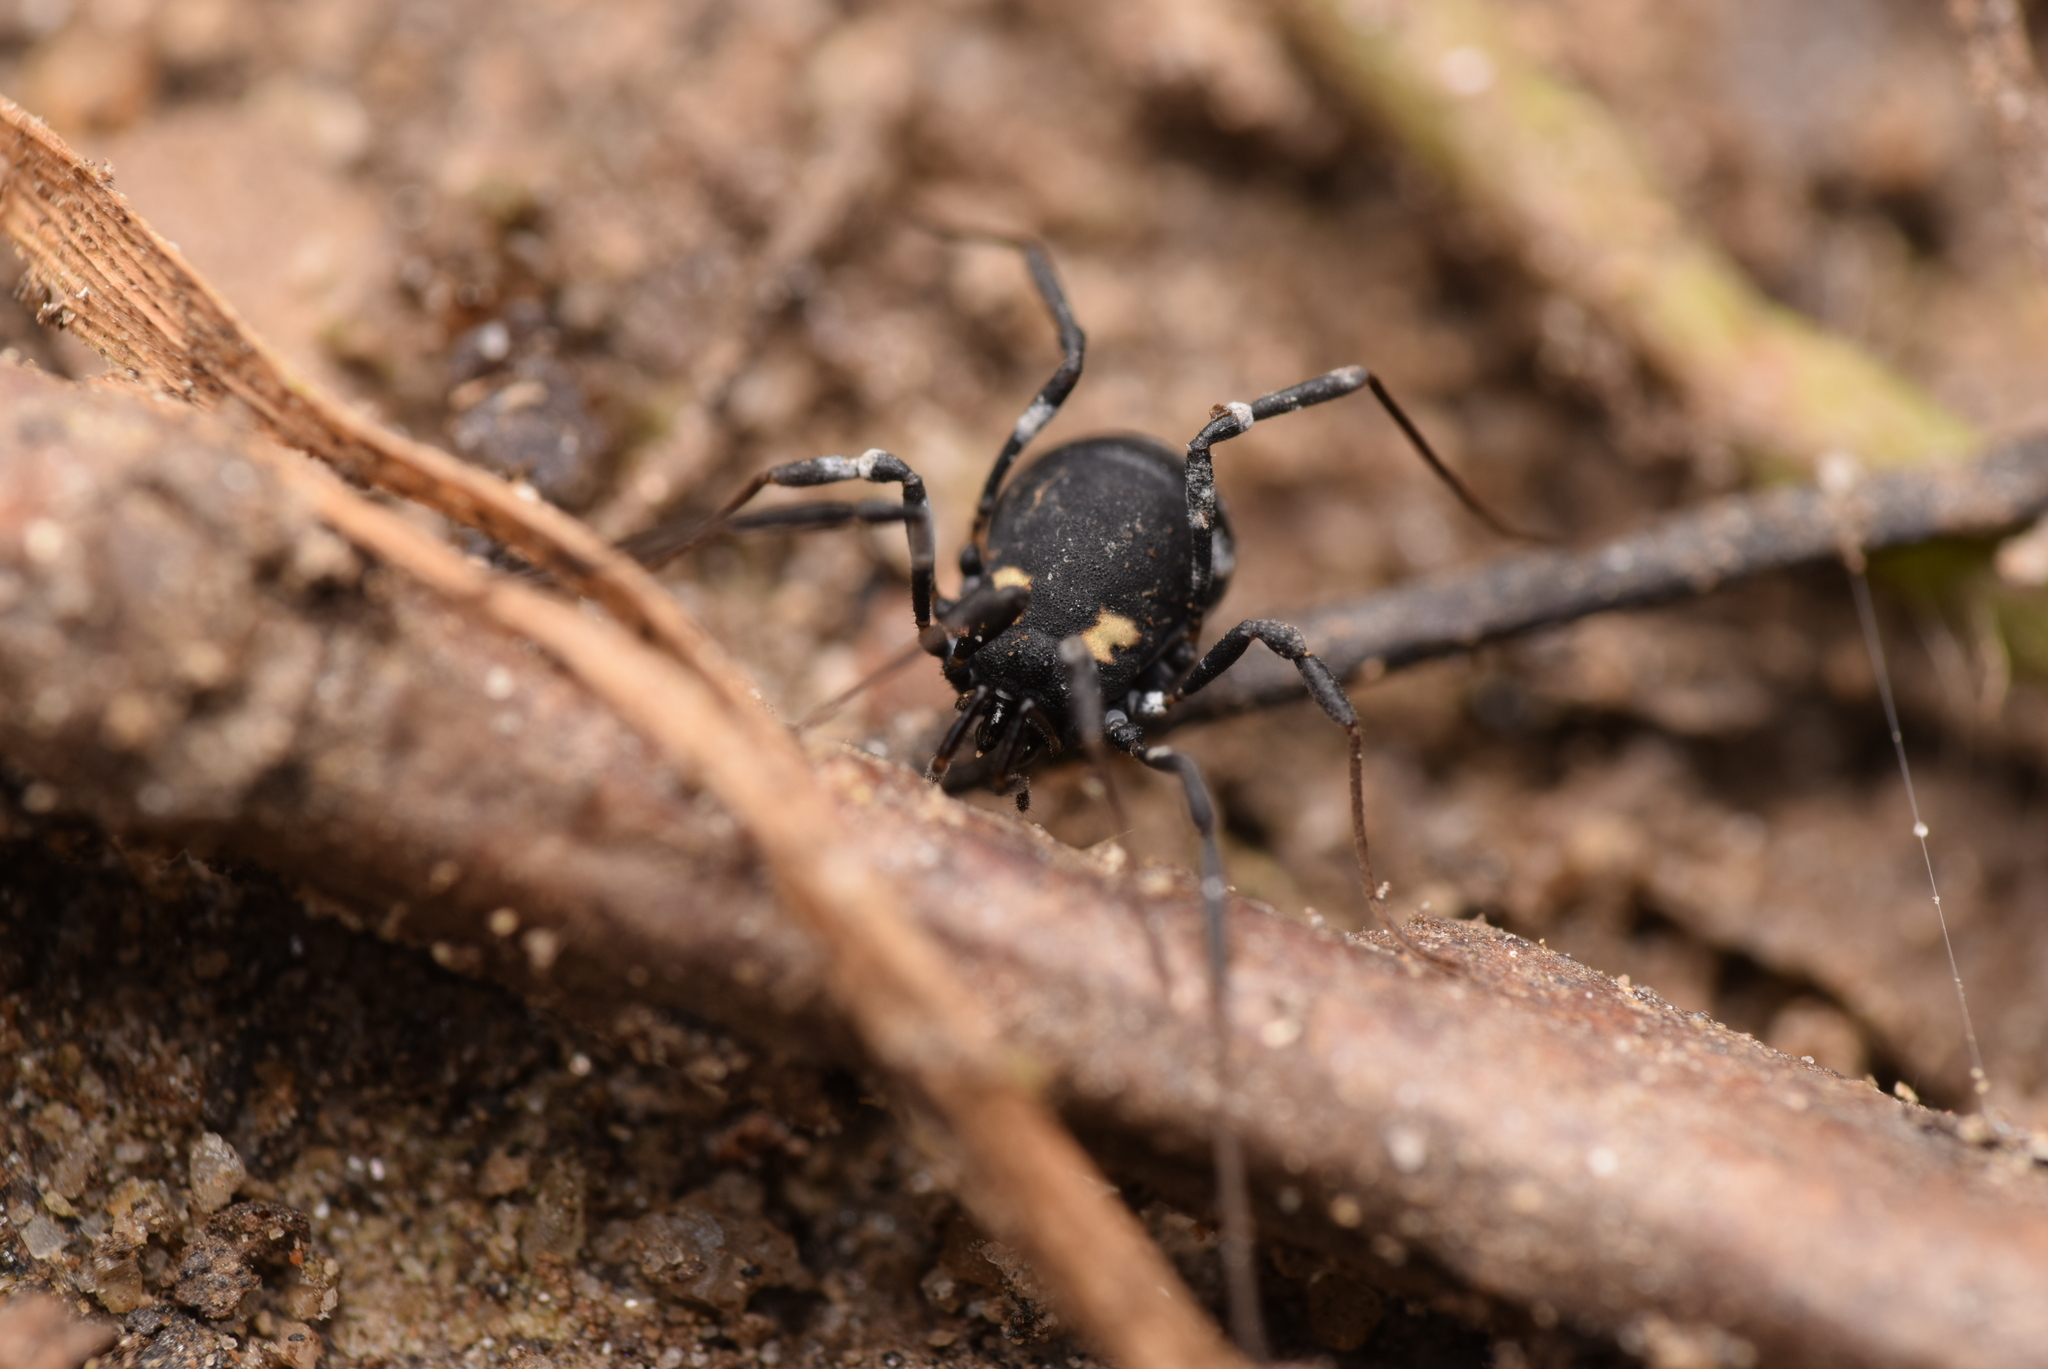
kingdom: Animalia
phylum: Arthropoda
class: Arachnida
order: Opiliones
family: Nemastomatidae
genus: Nemastoma
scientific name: Nemastoma bimaculatum
